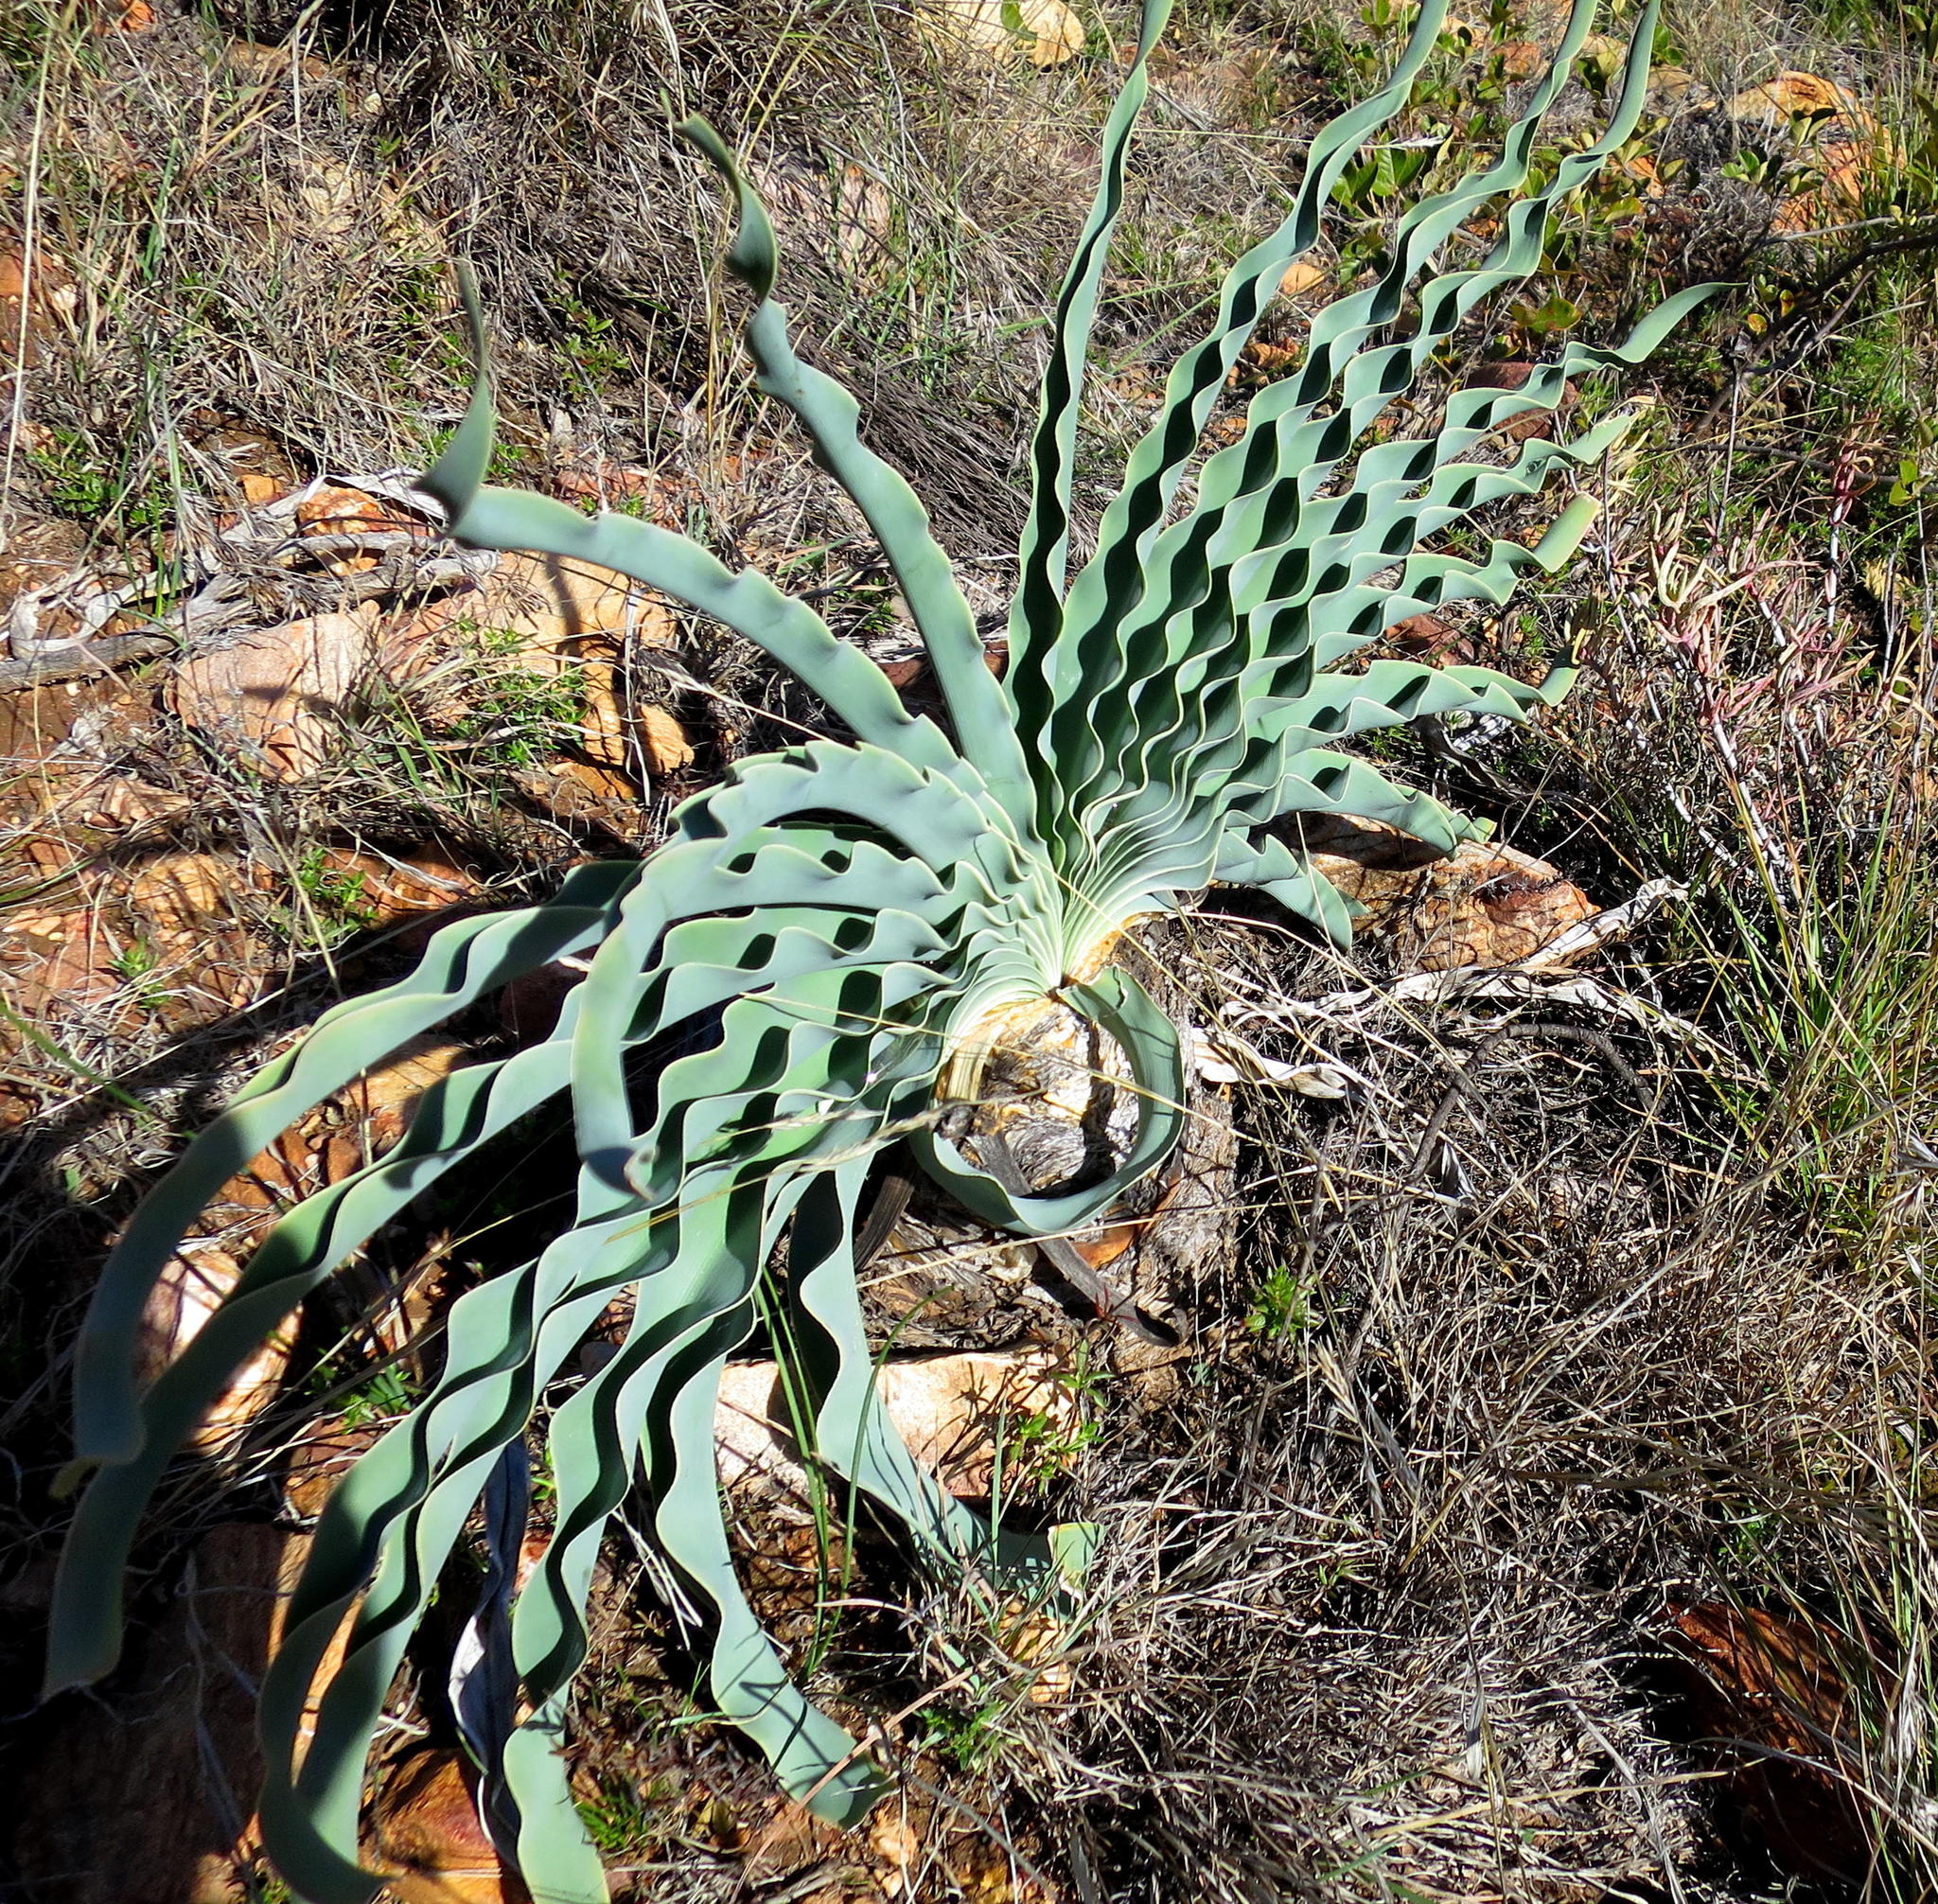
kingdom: Plantae
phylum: Tracheophyta
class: Liliopsida
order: Asparagales
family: Amaryllidaceae
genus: Boophone
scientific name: Boophone disticha
